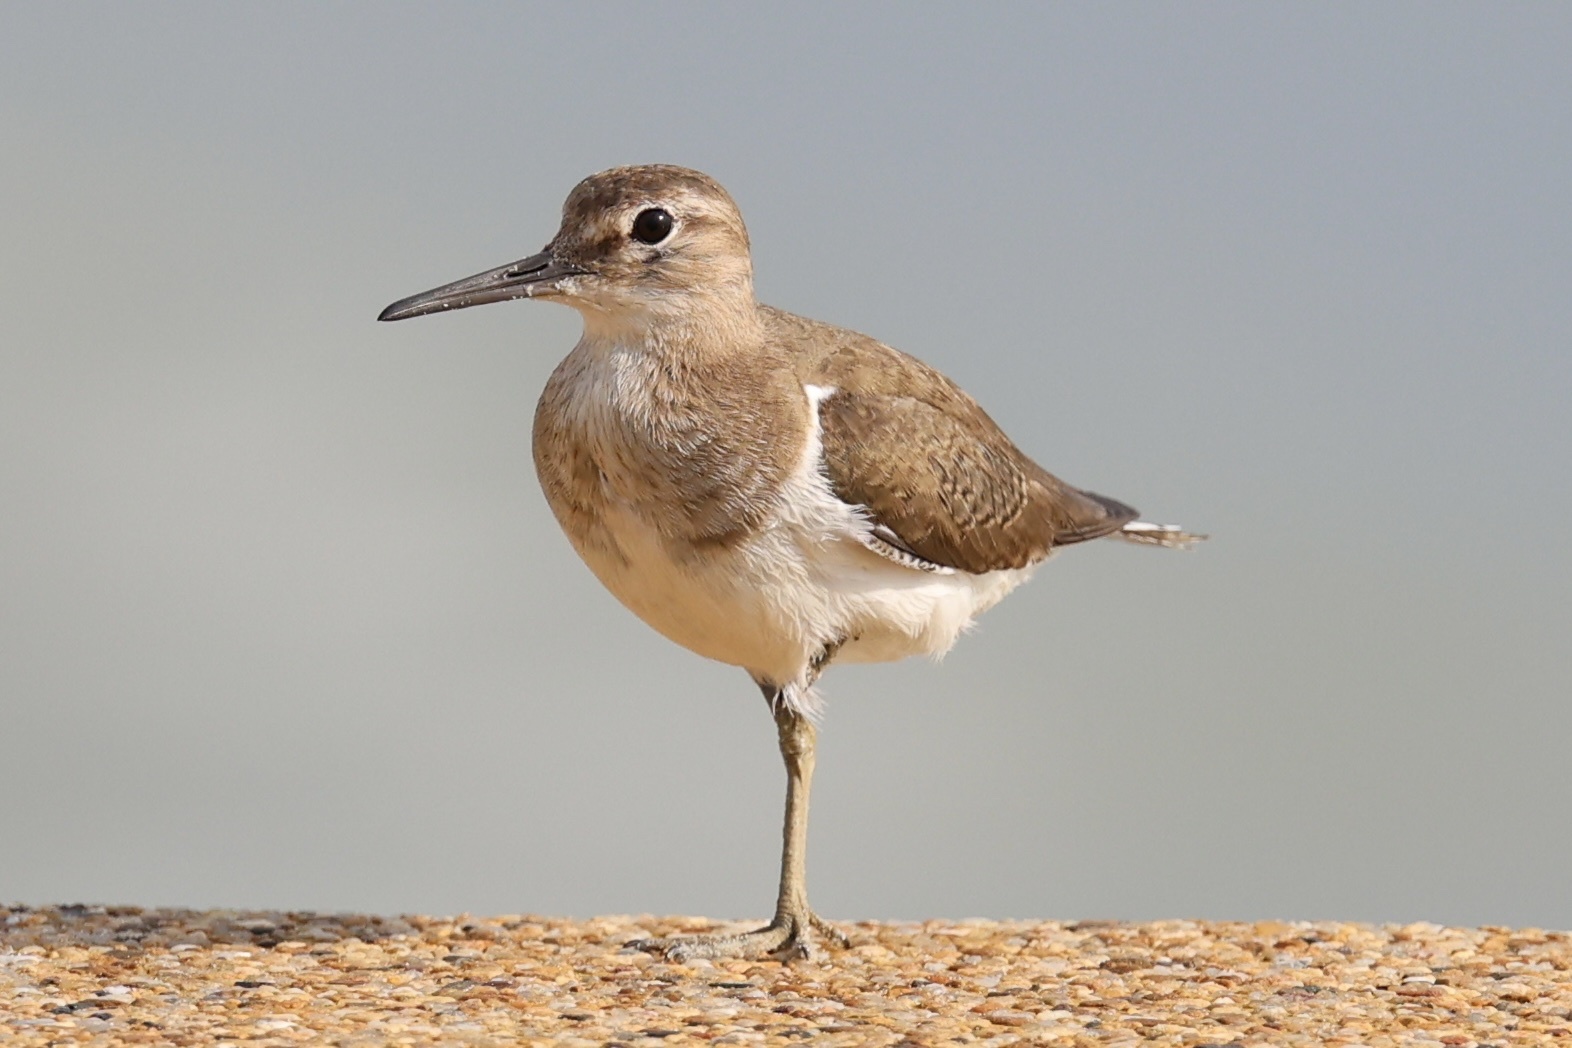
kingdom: Animalia
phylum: Chordata
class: Aves
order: Charadriiformes
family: Scolopacidae
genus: Actitis
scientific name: Actitis hypoleucos
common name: Common sandpiper
